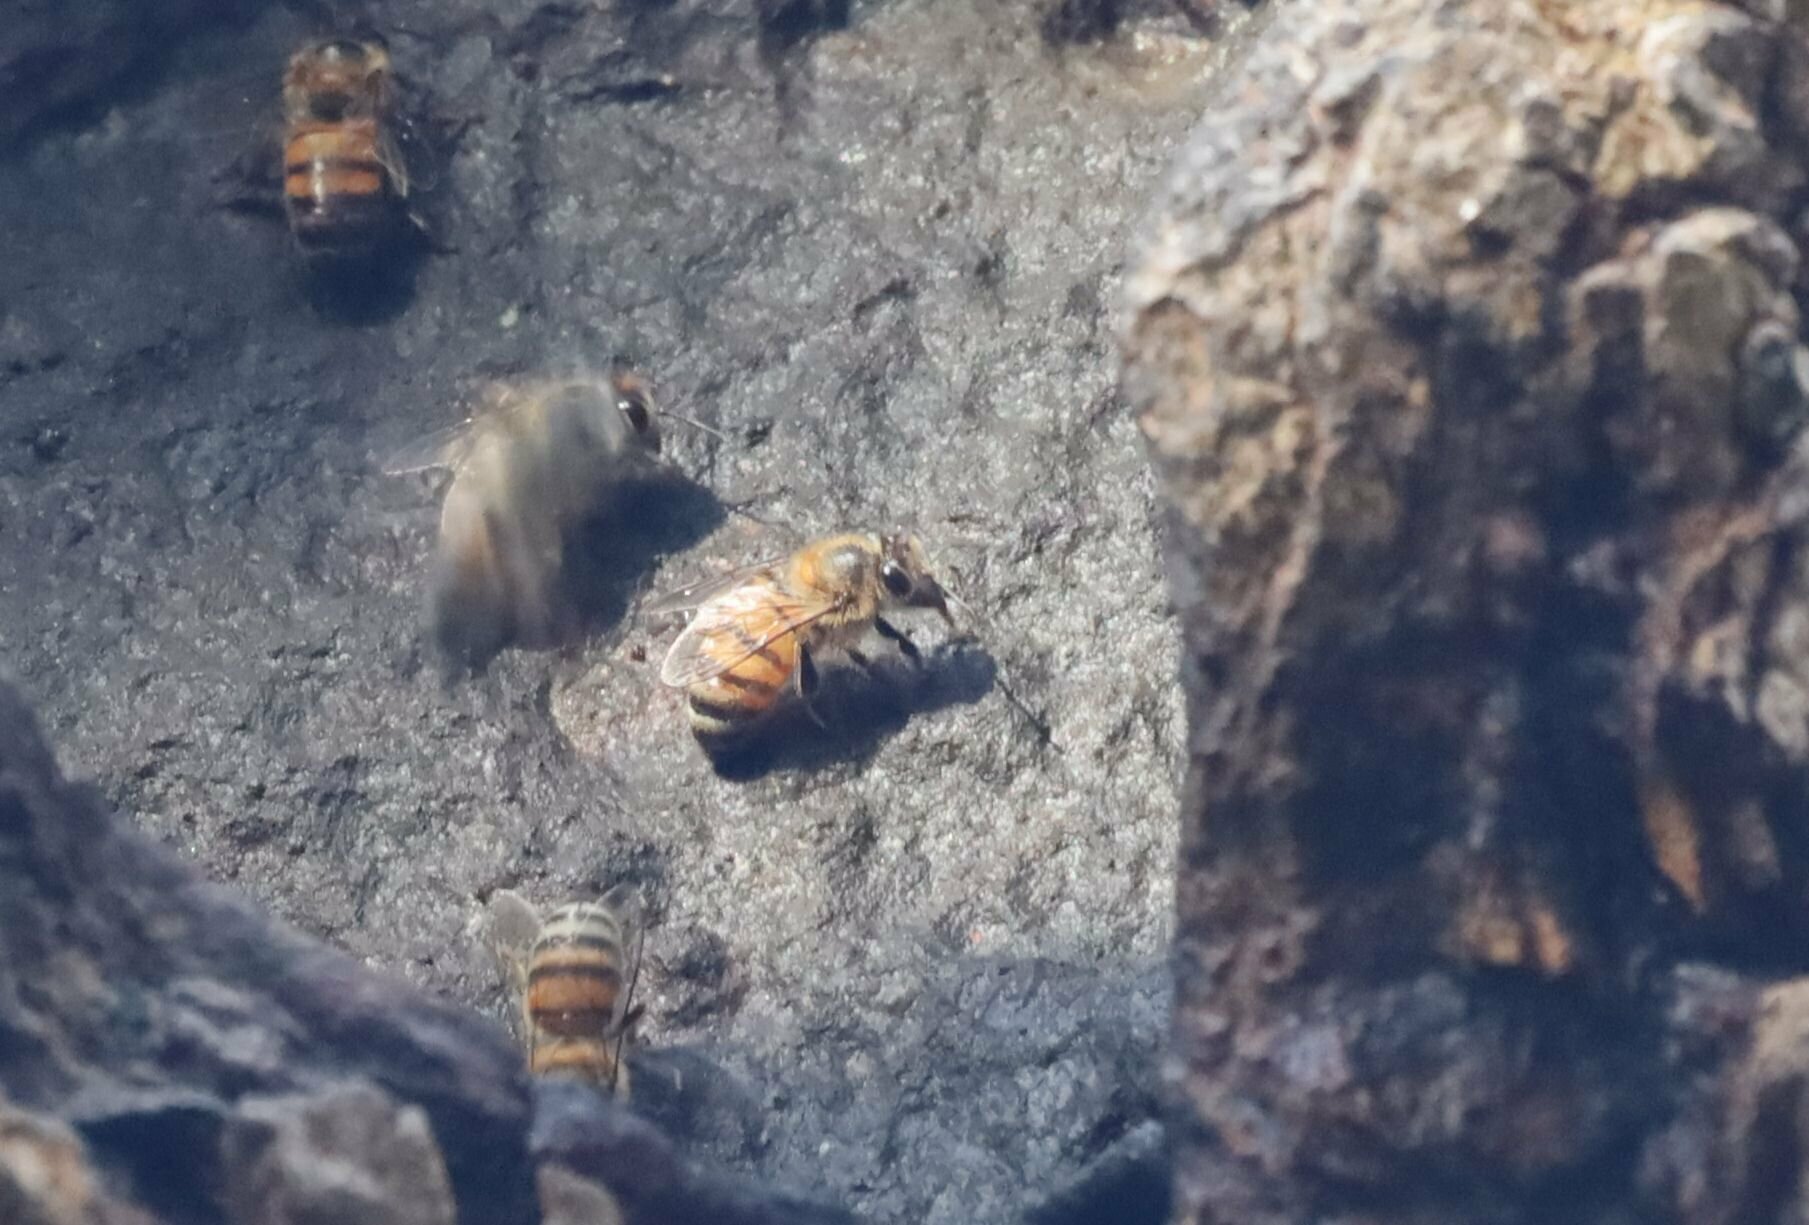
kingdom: Animalia
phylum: Arthropoda
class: Insecta
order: Hymenoptera
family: Apidae
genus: Apis
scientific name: Apis mellifera
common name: Honey bee
